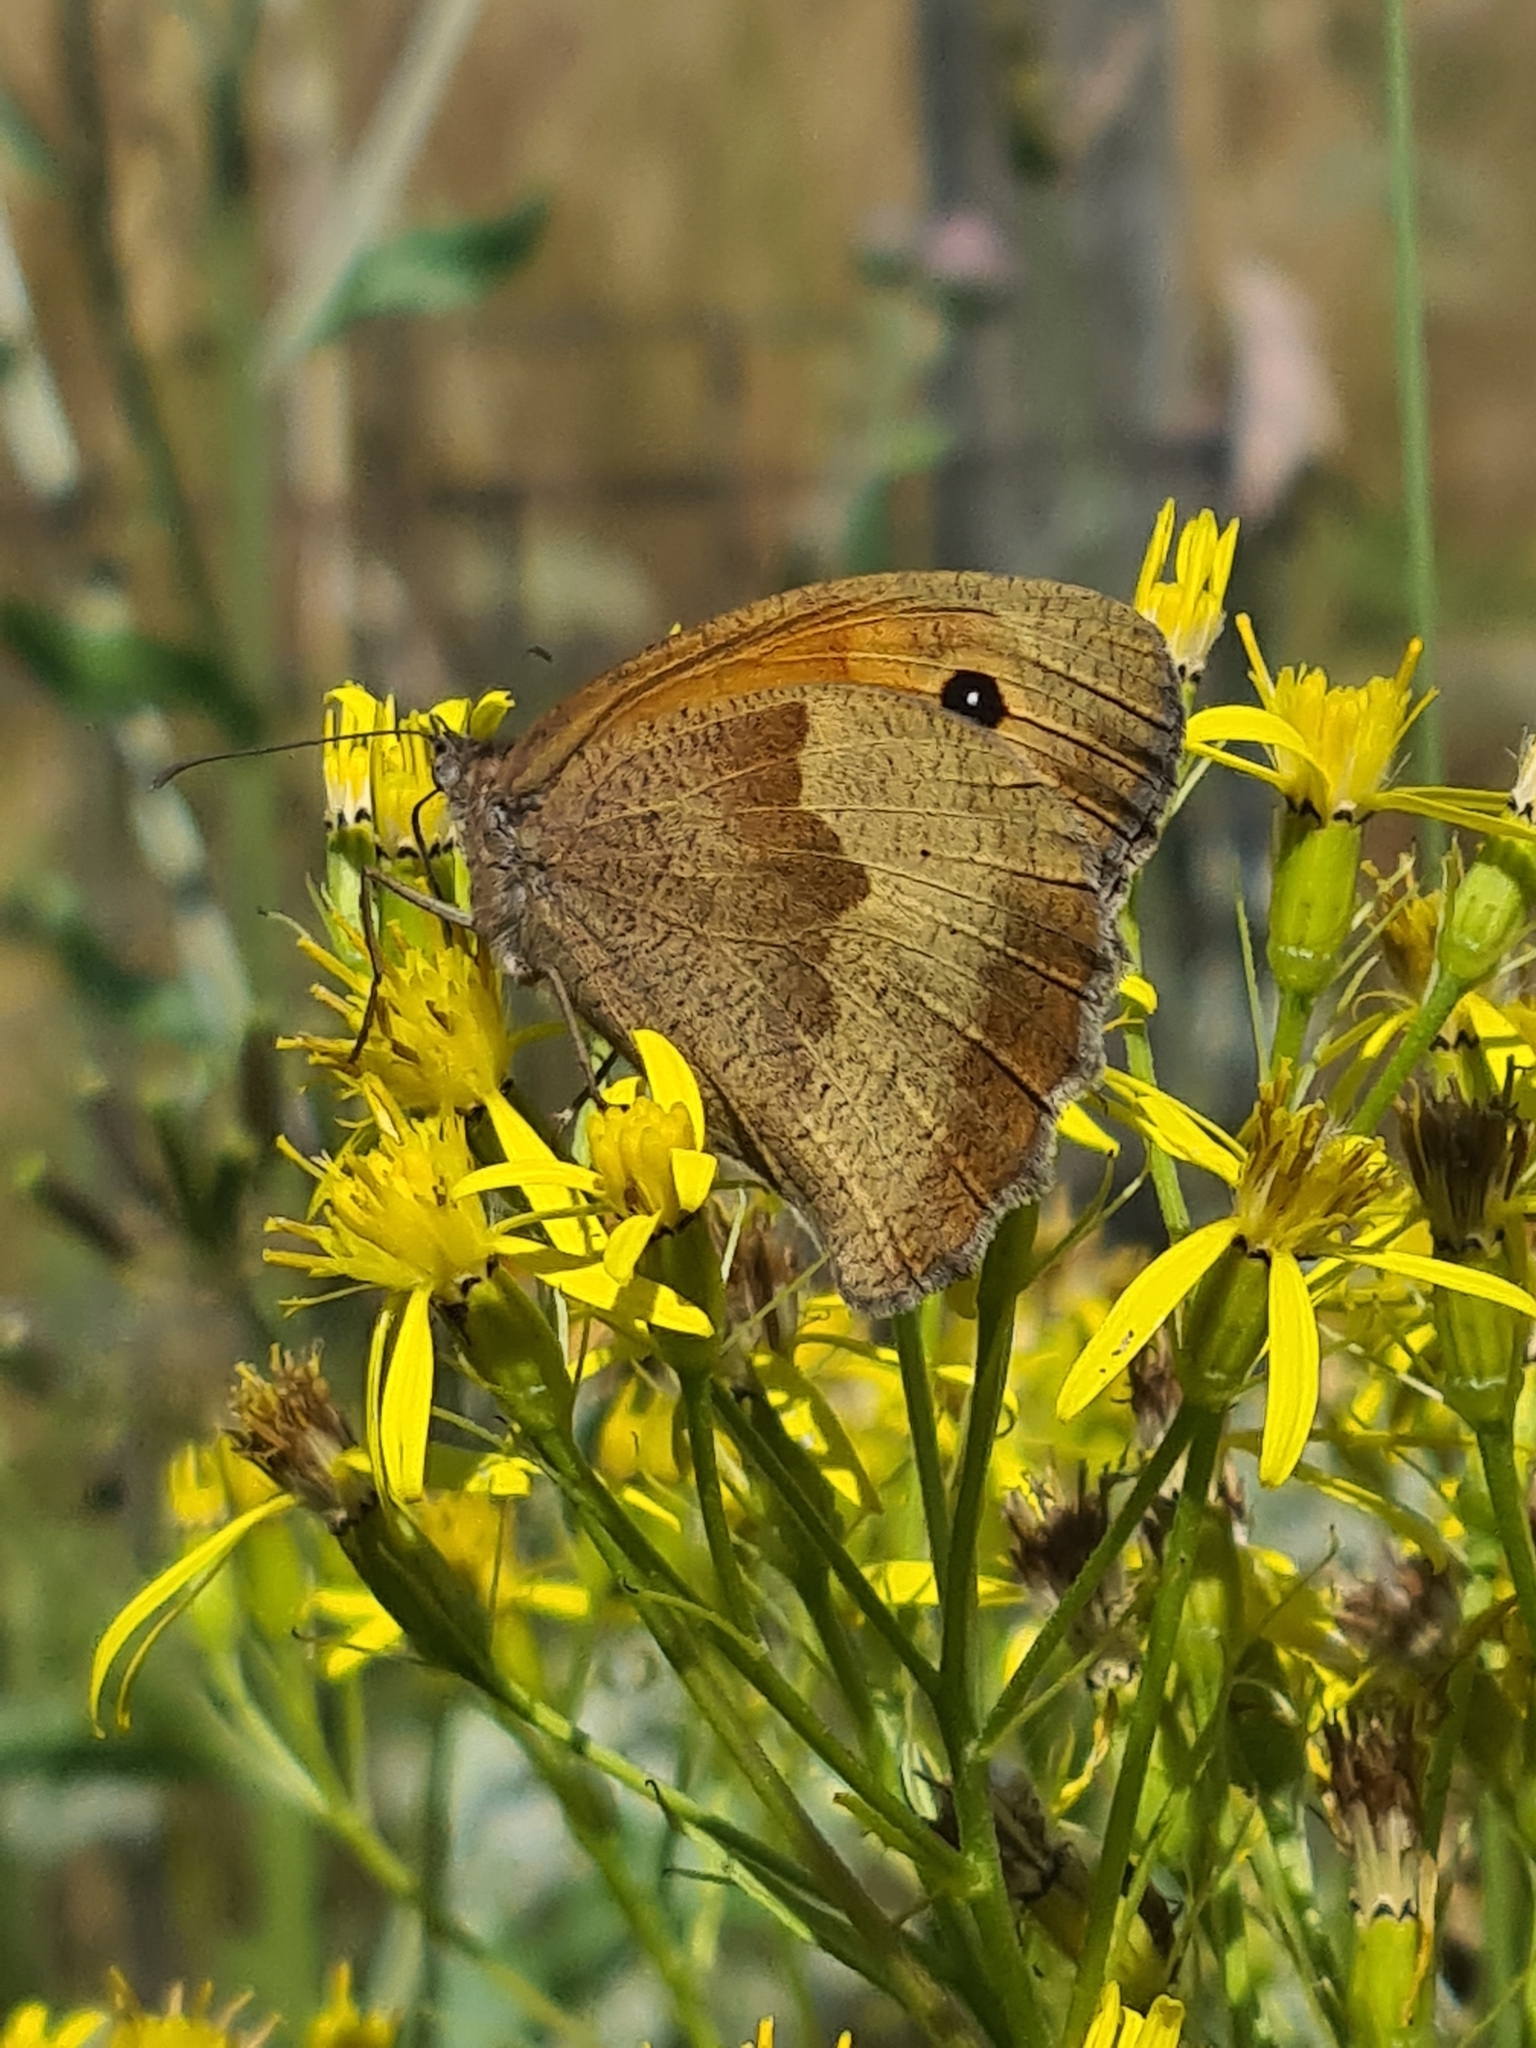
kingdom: Animalia
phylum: Arthropoda
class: Insecta
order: Lepidoptera
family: Nymphalidae
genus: Maniola
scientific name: Maniola jurtina
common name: Meadow brown
